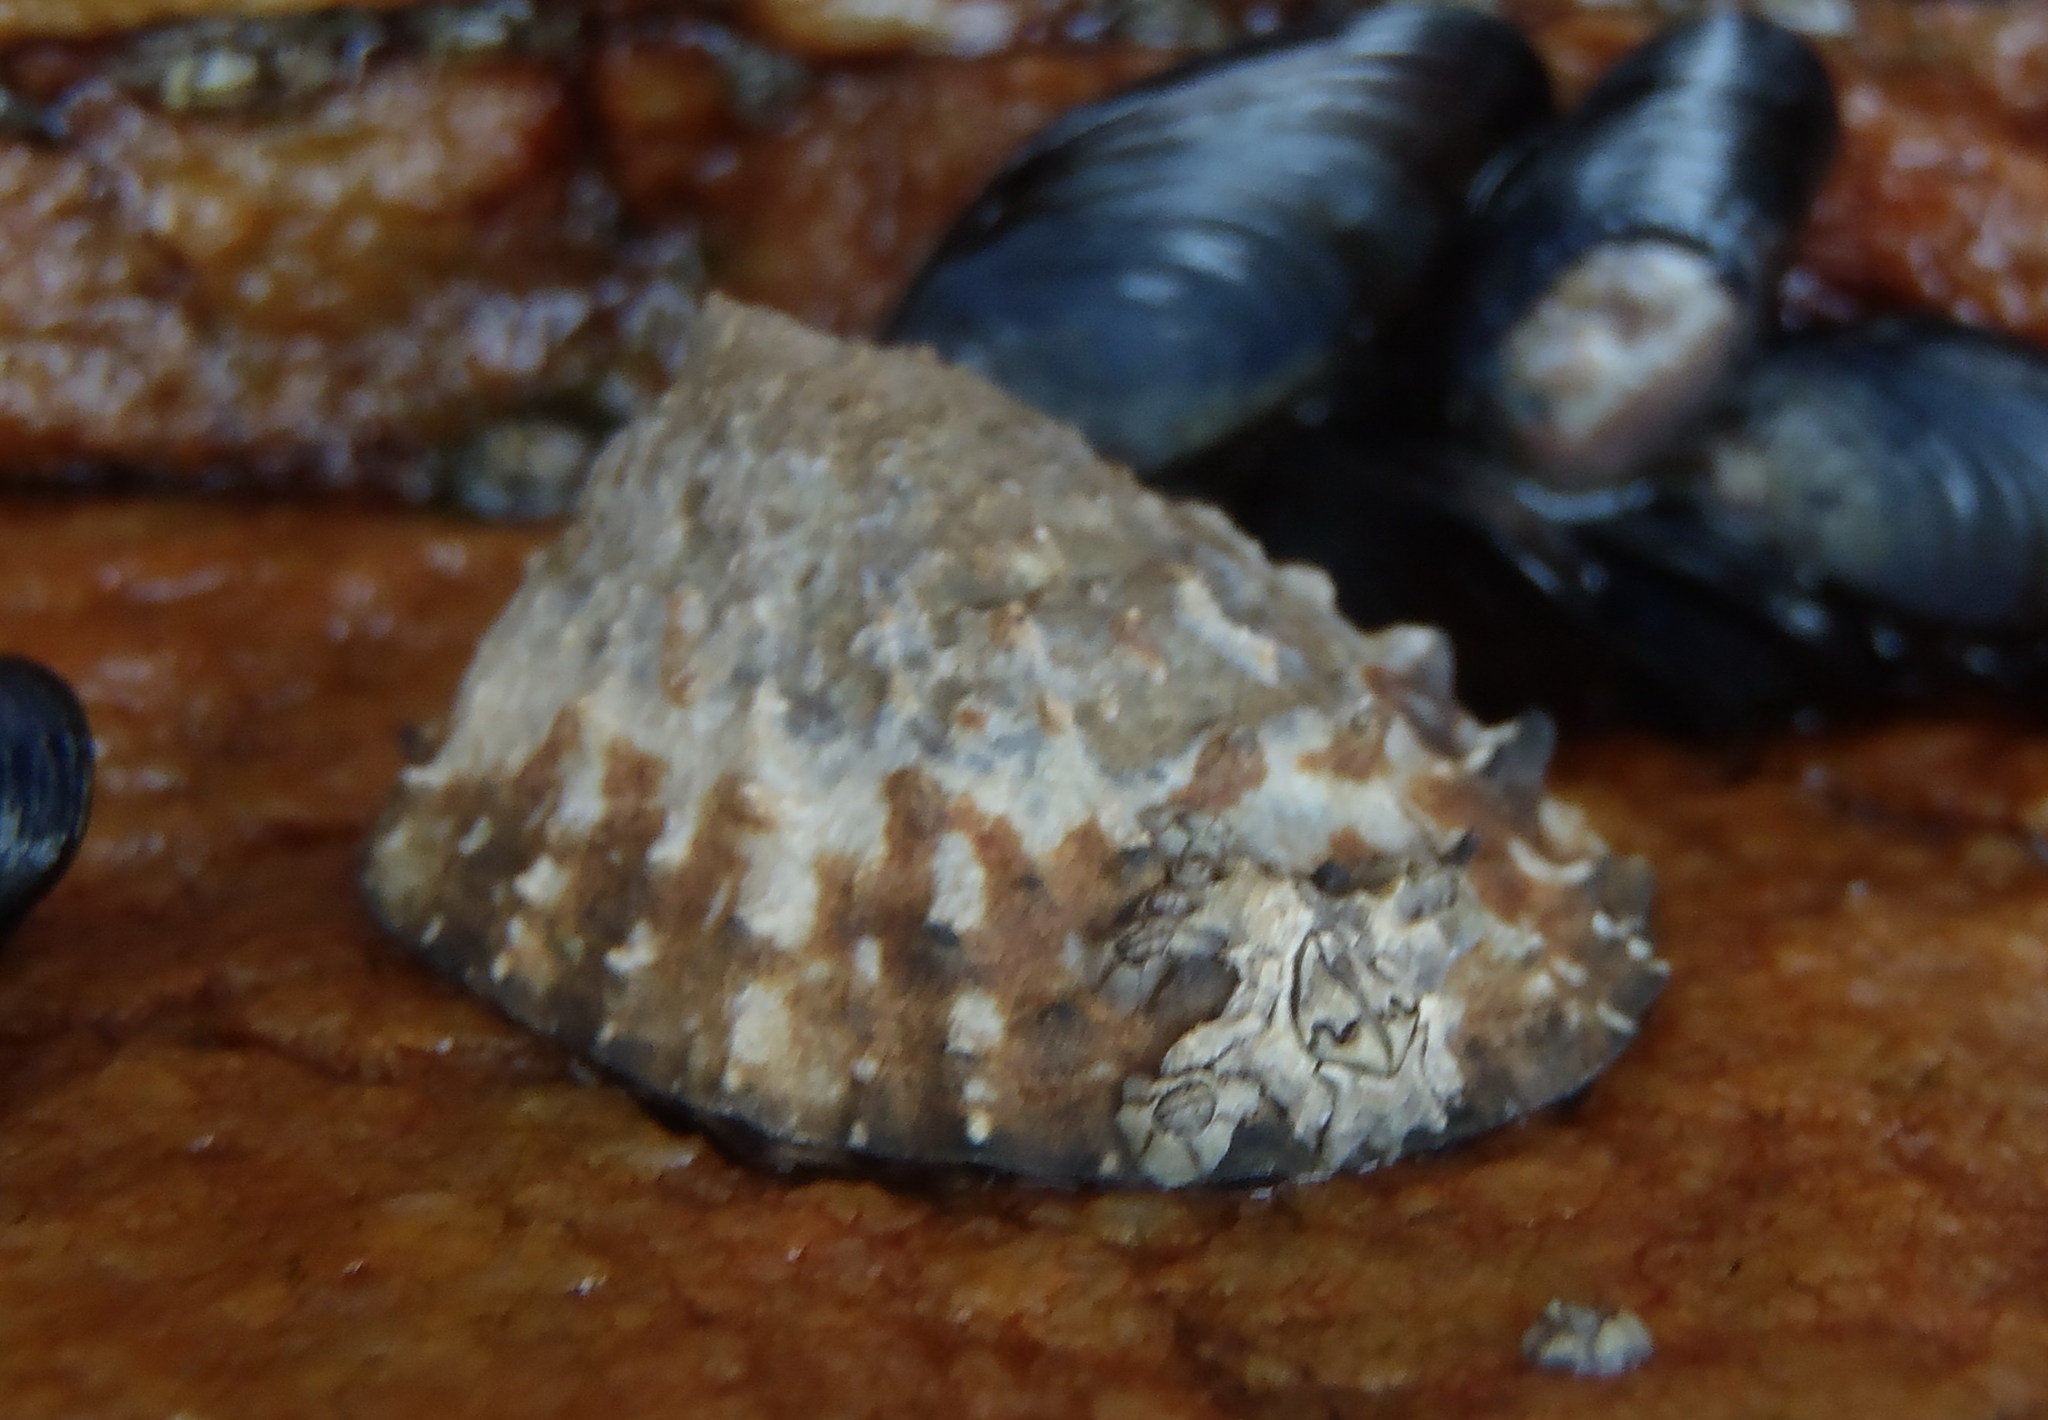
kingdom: Animalia
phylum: Mollusca
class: Gastropoda
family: Patellidae
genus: Scutellastra
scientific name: Scutellastra granularis
